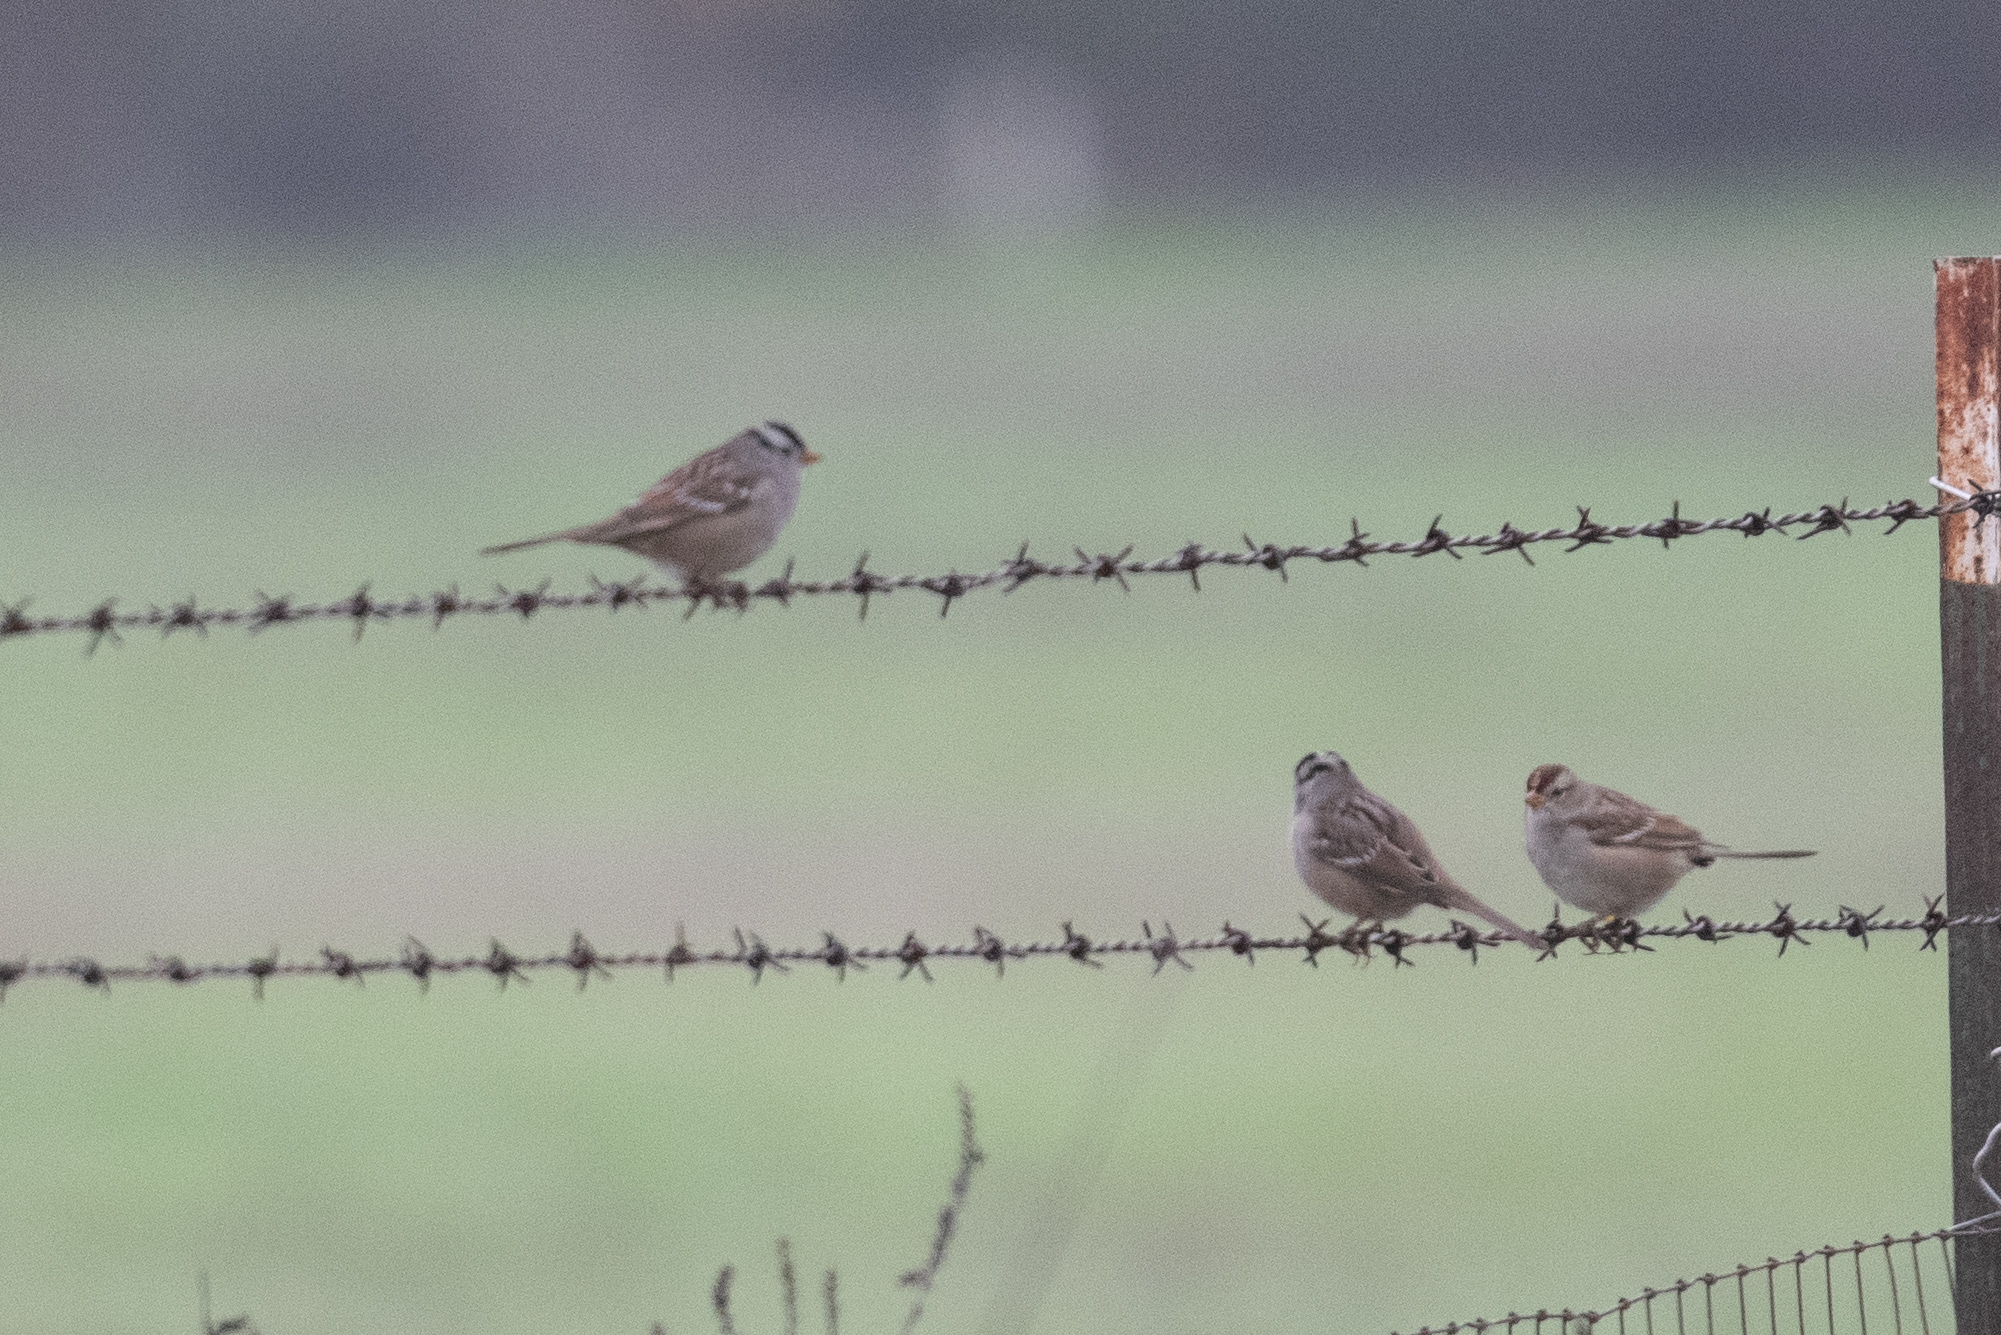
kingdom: Animalia
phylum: Chordata
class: Aves
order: Passeriformes
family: Passerellidae
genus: Zonotrichia
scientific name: Zonotrichia leucophrys
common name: White-crowned sparrow
